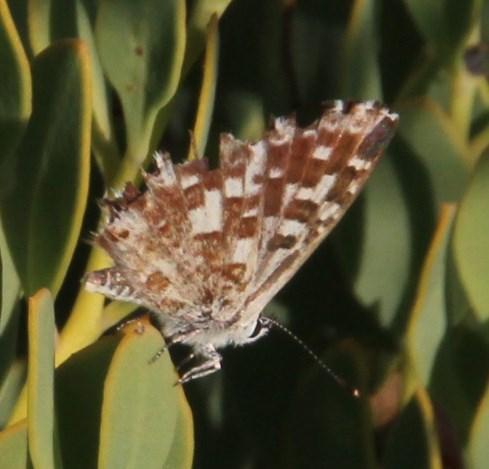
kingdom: Animalia
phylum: Arthropoda
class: Insecta
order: Lepidoptera
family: Lycaenidae
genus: Tarucus
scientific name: Tarucus thespis
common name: Vivid dotted blue
